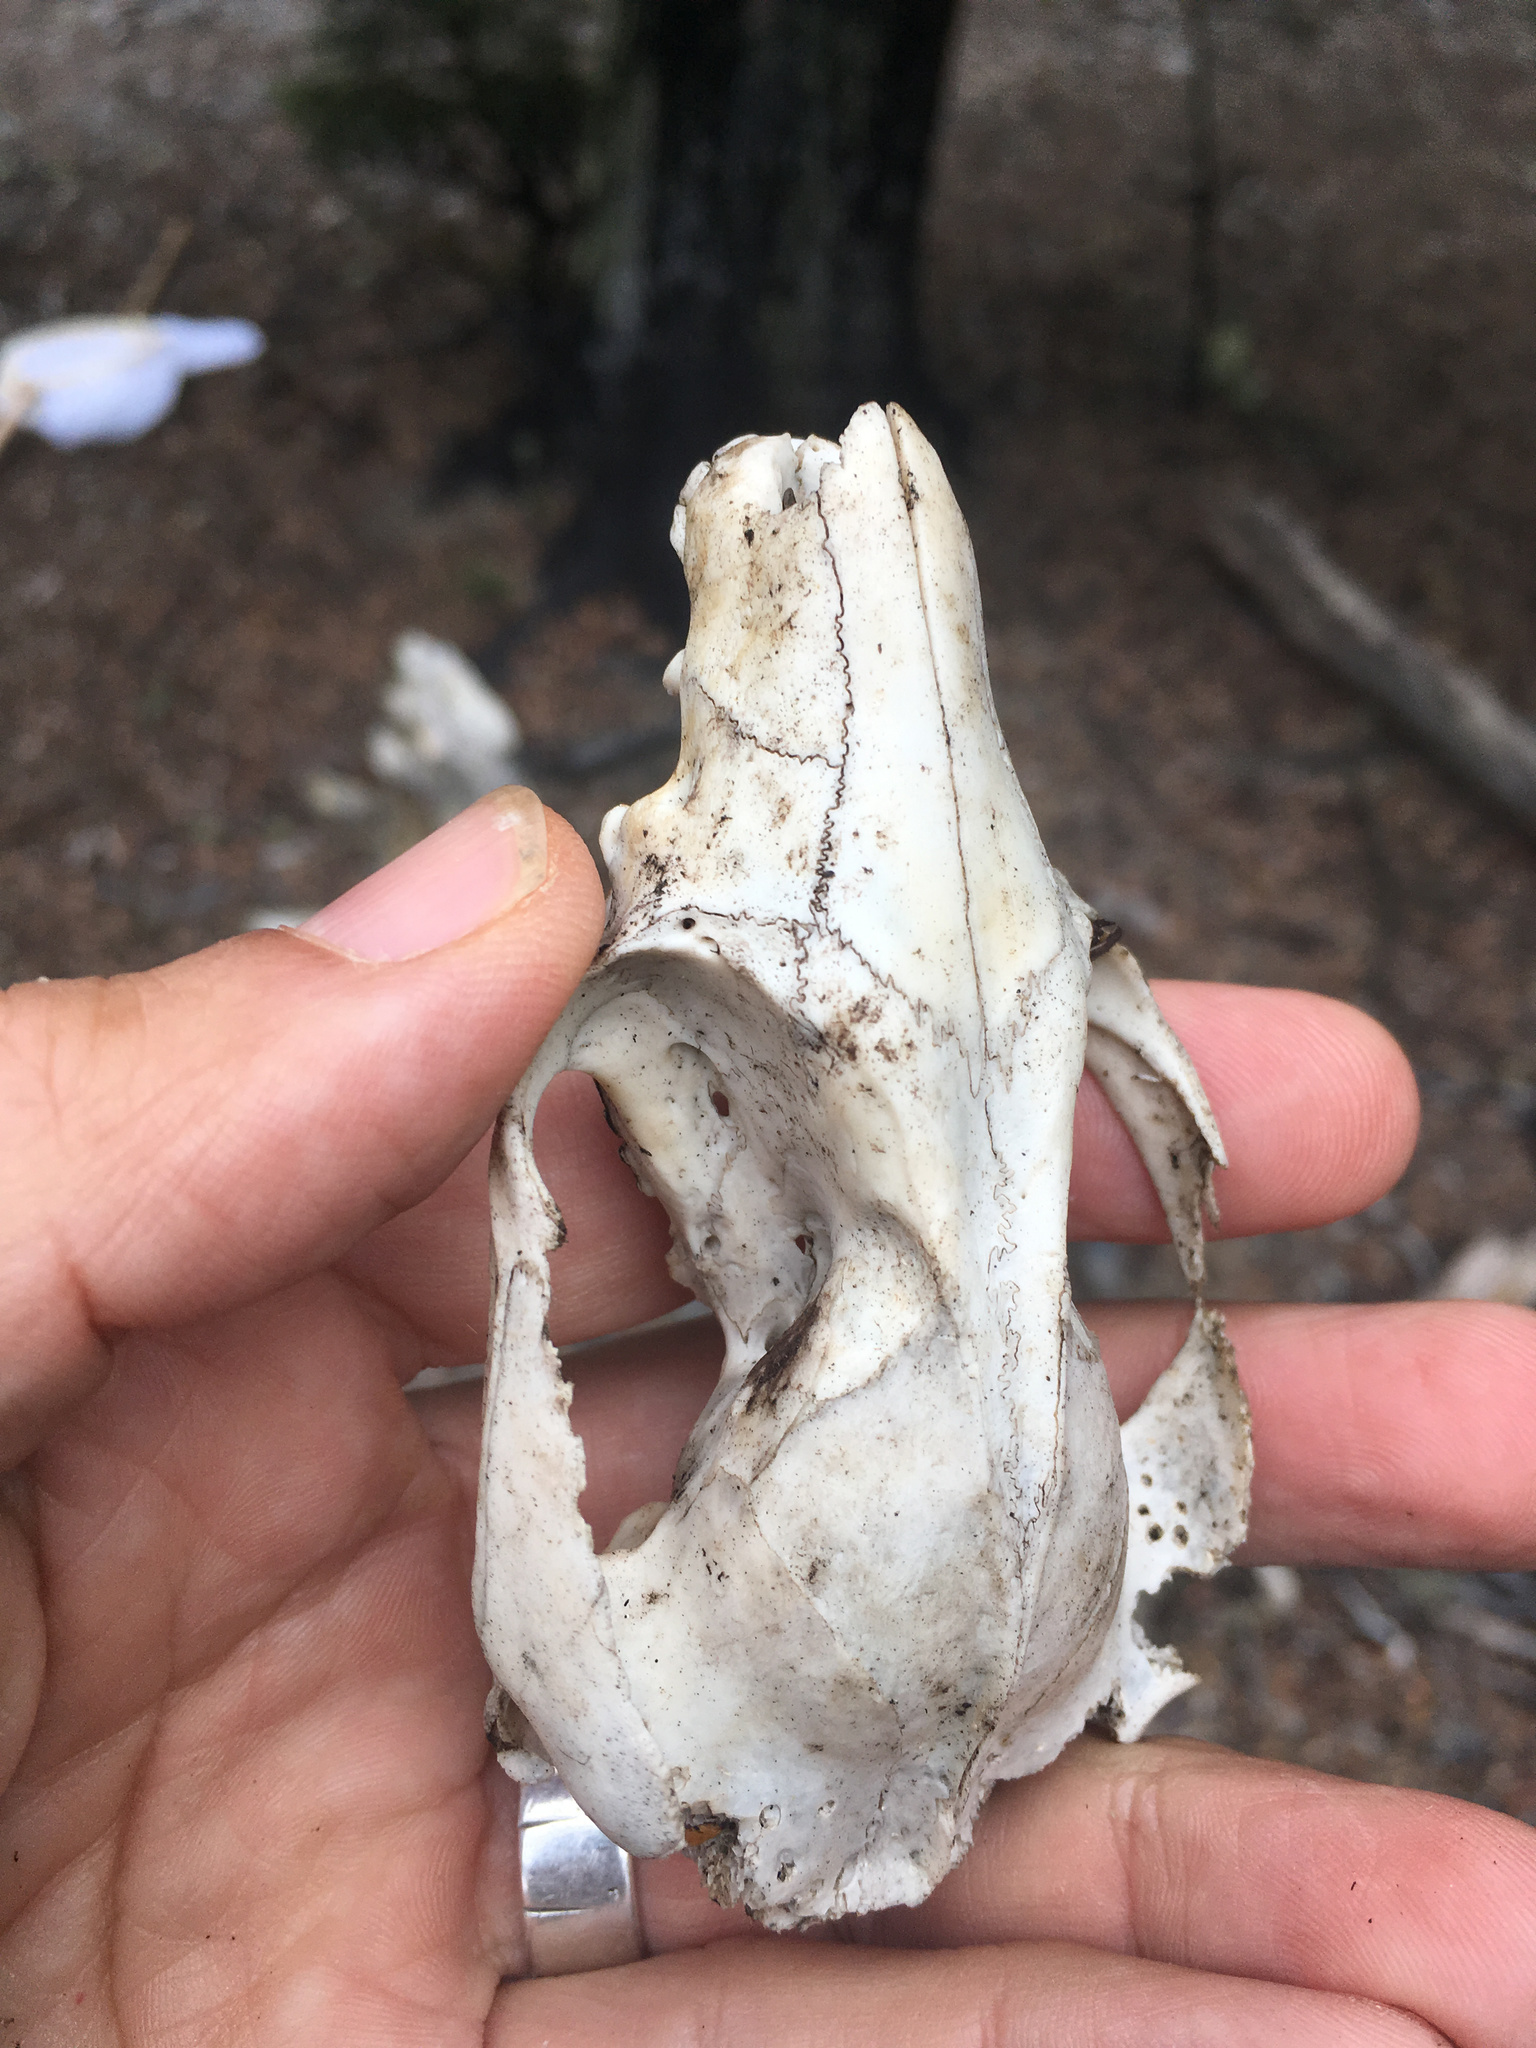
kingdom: Animalia
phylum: Chordata
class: Mammalia
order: Diprotodontia
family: Phalangeridae
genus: Trichosurus
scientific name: Trichosurus vulpecula
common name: Common brushtail
